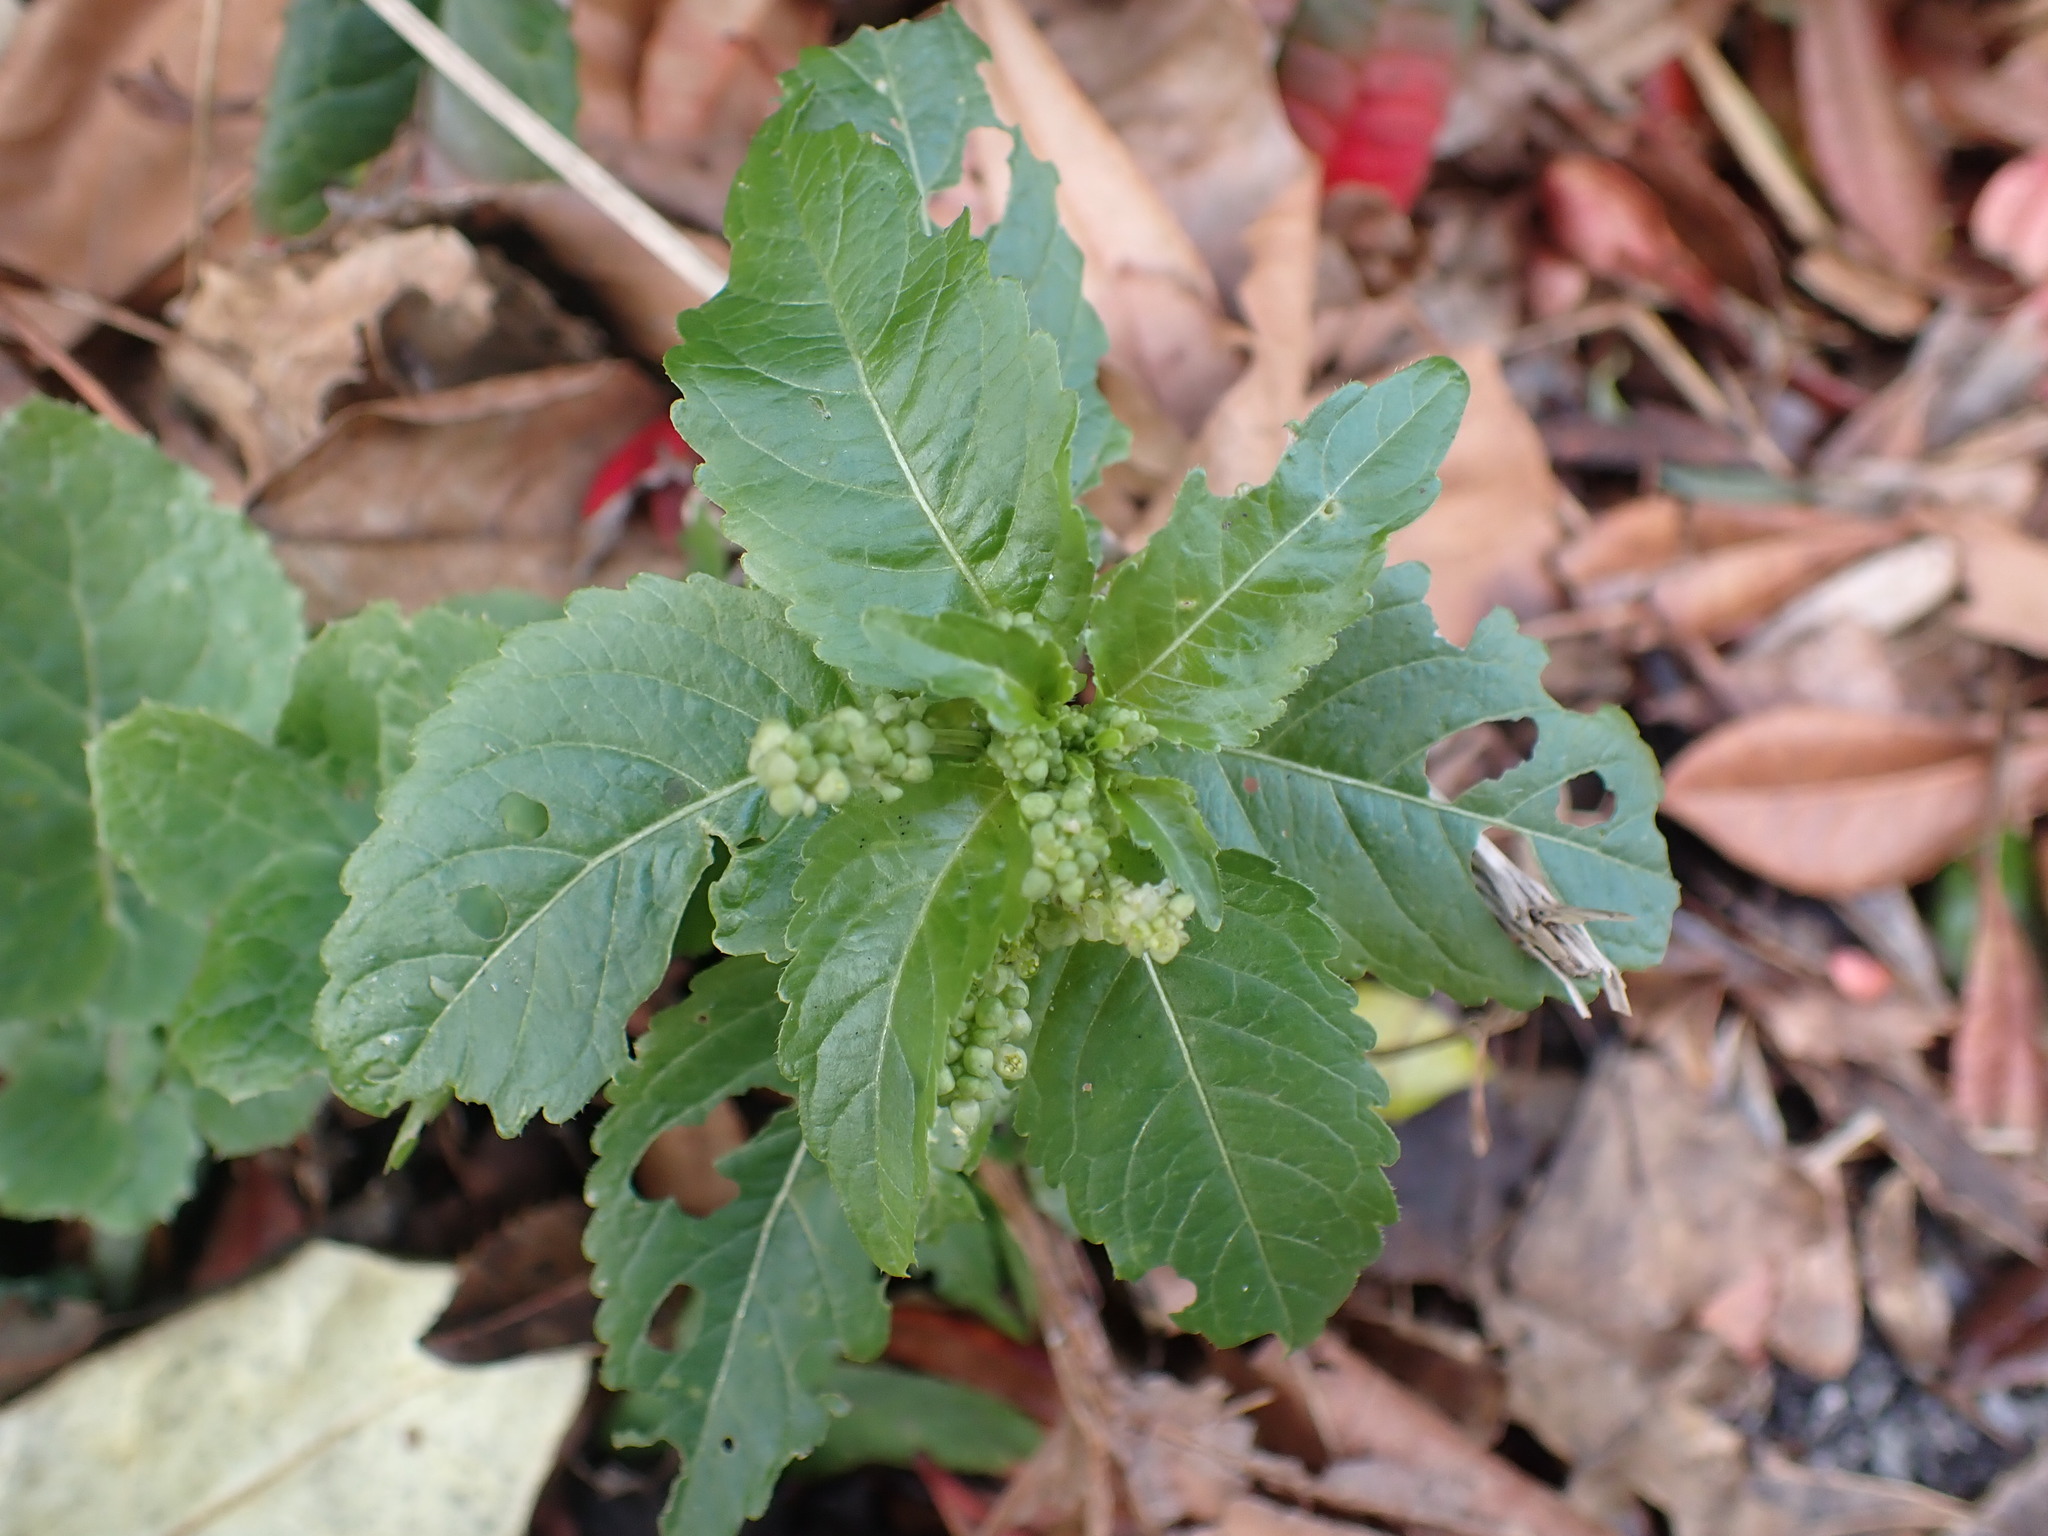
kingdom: Plantae
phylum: Tracheophyta
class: Magnoliopsida
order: Malpighiales
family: Euphorbiaceae
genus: Mercurialis
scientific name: Mercurialis annua
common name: Annual mercury
